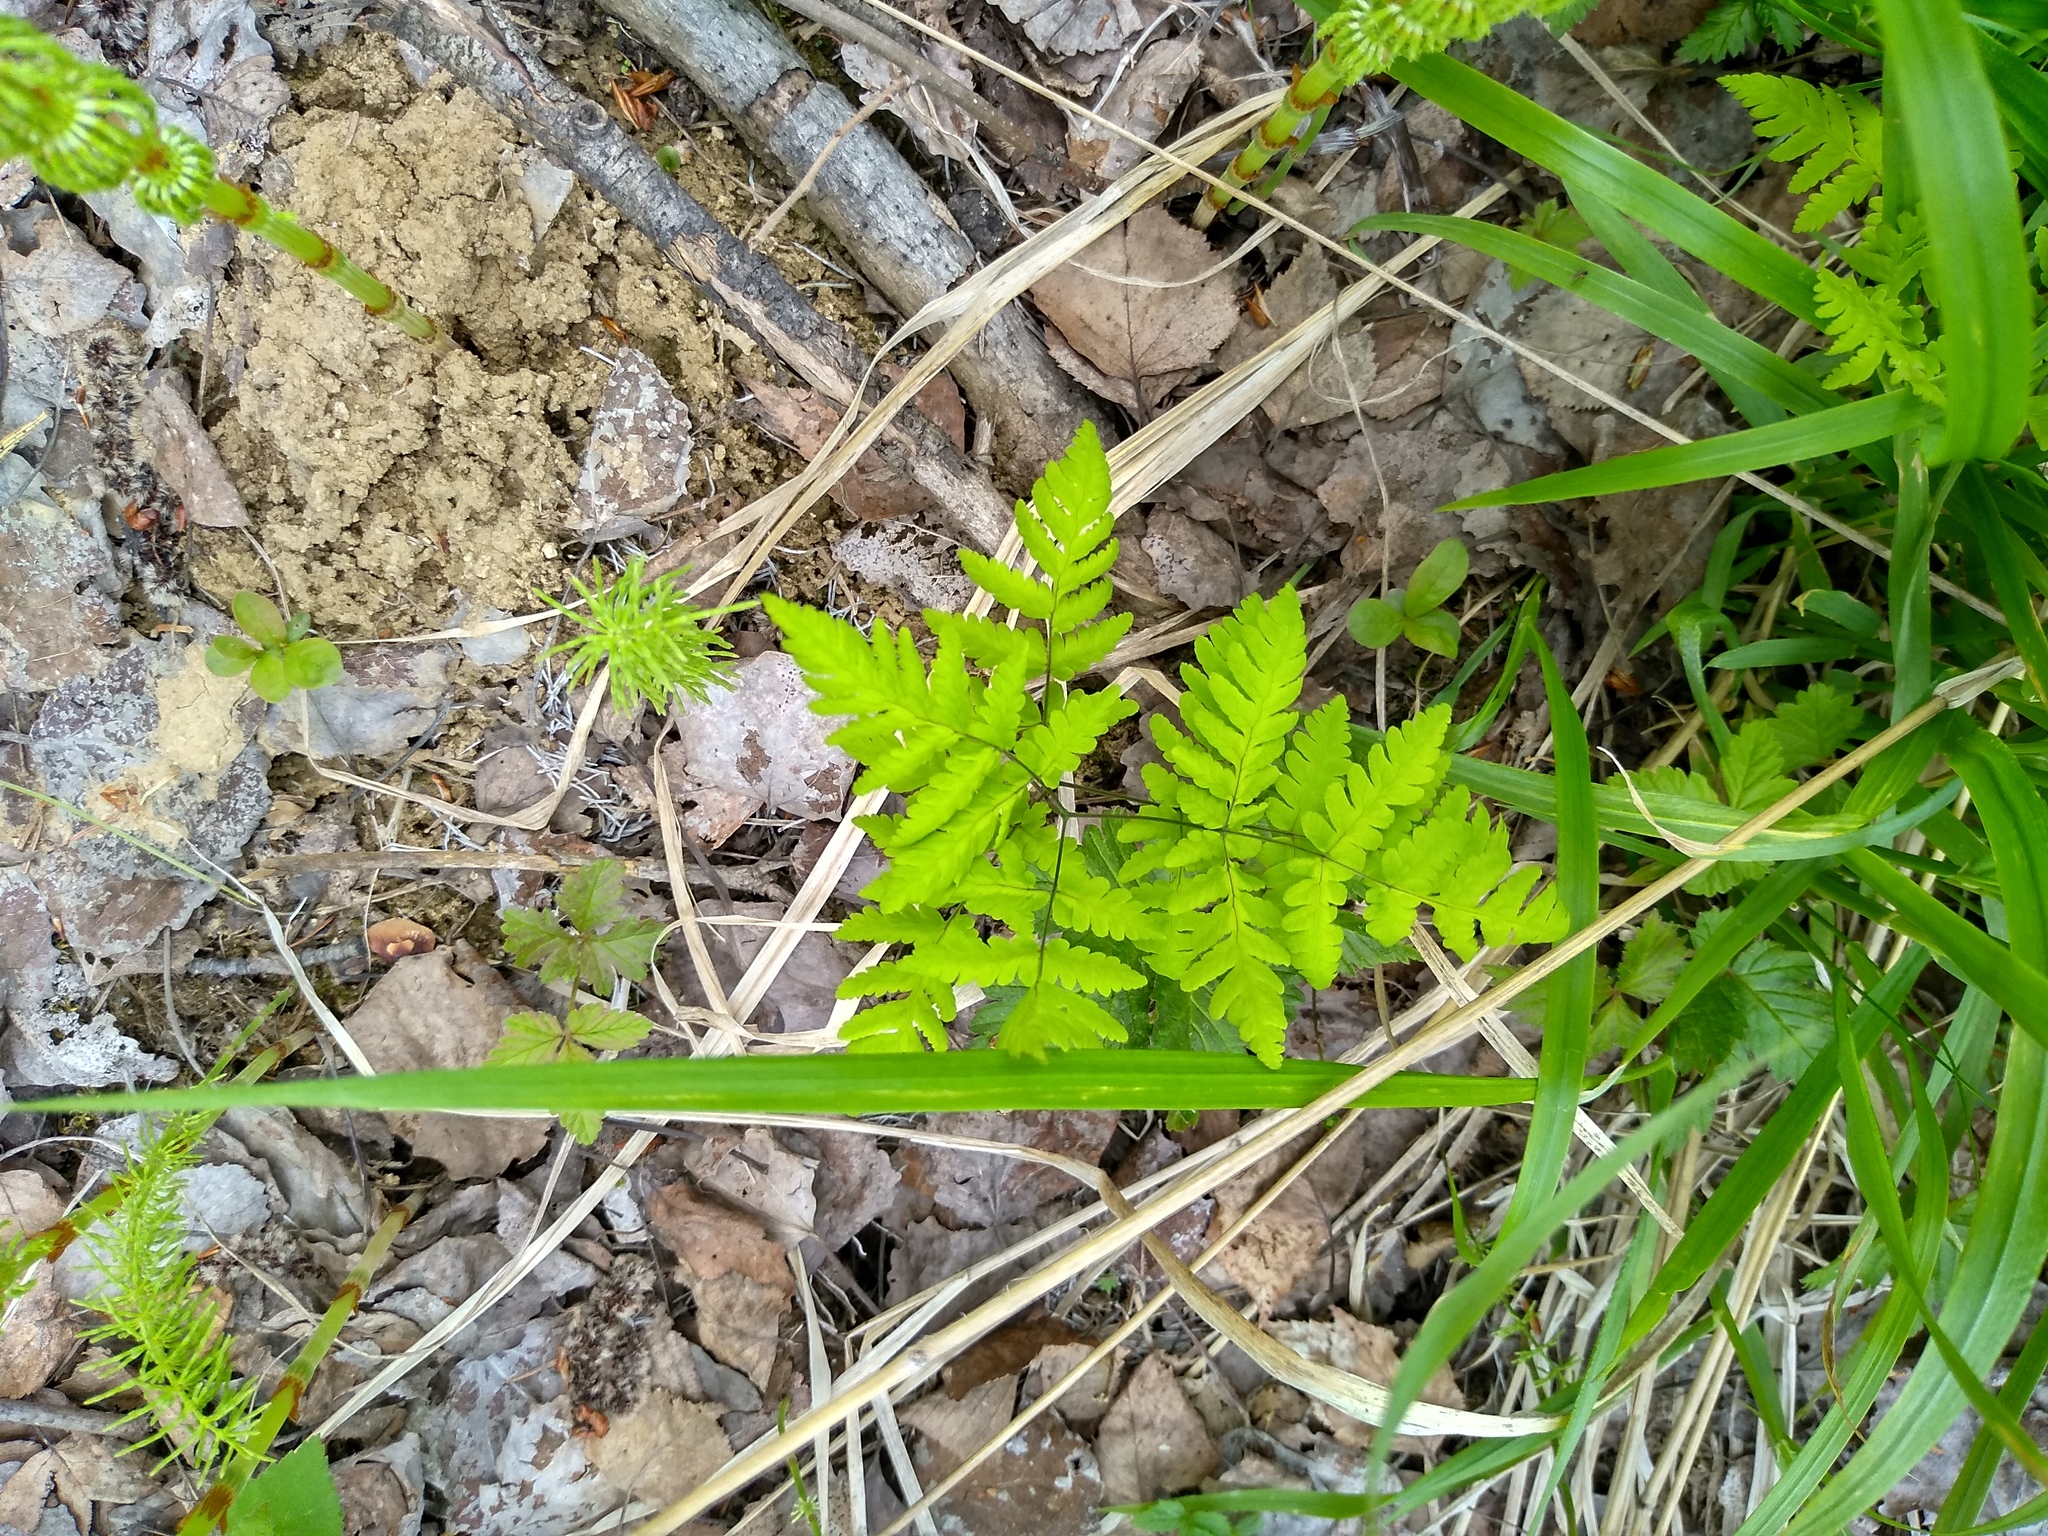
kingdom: Plantae
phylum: Tracheophyta
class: Polypodiopsida
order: Polypodiales
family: Cystopteridaceae
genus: Gymnocarpium
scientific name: Gymnocarpium dryopteris
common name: Oak fern
